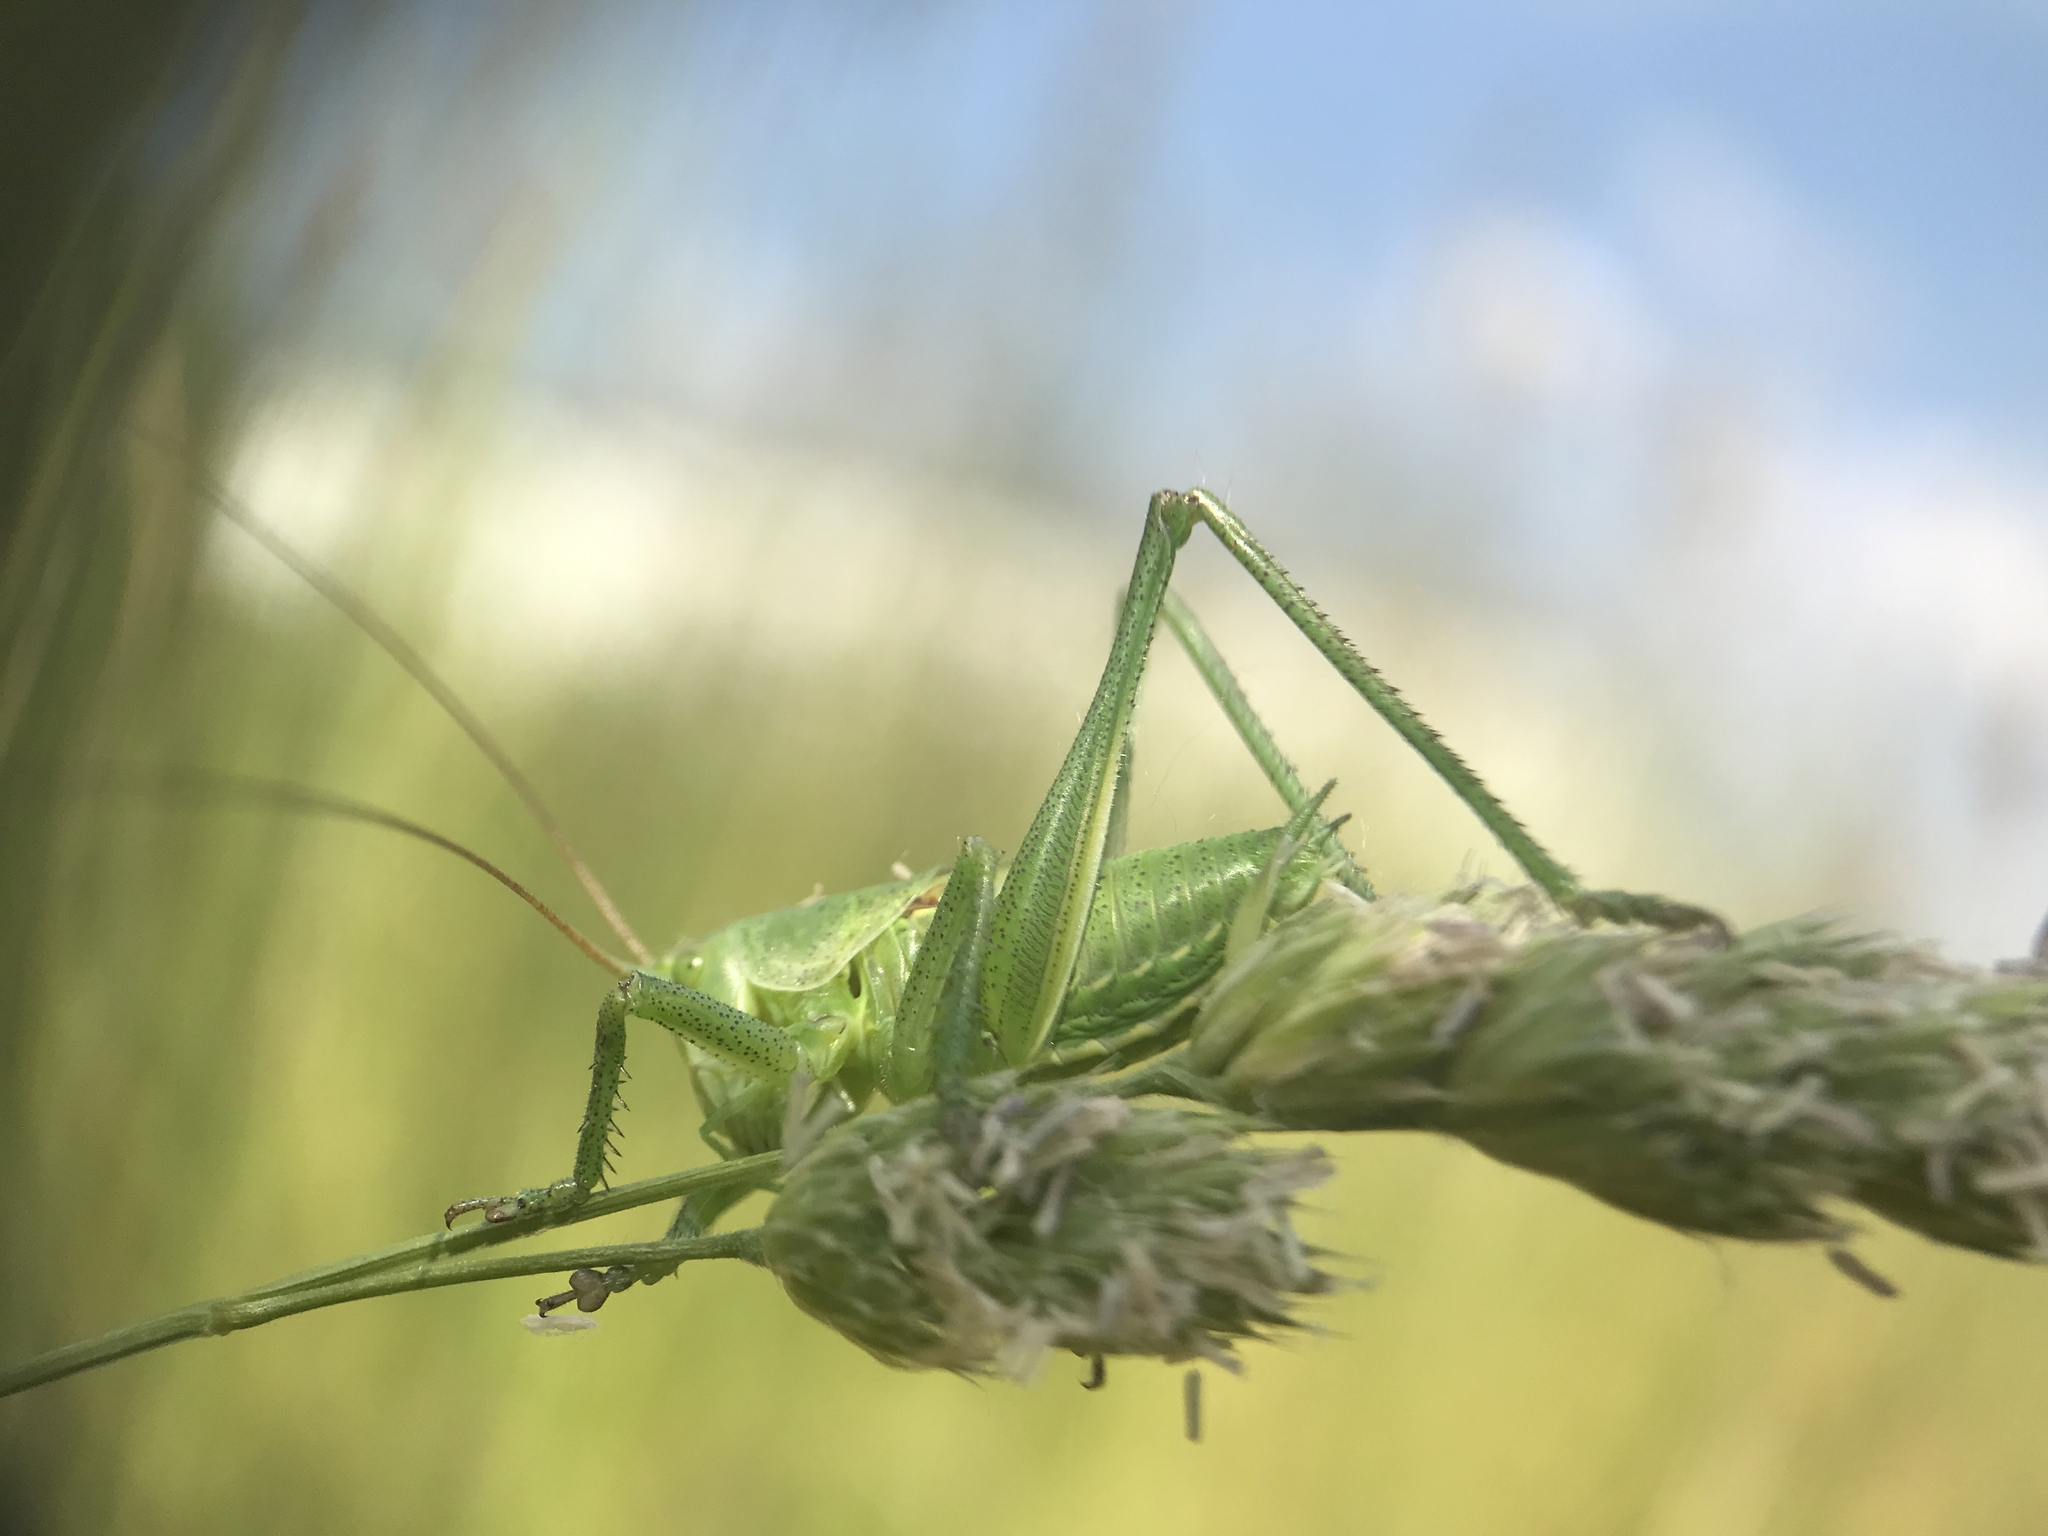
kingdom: Animalia
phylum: Arthropoda
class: Insecta
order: Orthoptera
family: Tettigoniidae
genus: Tettigonia
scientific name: Tettigonia viridissima
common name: Great green bush-cricket
